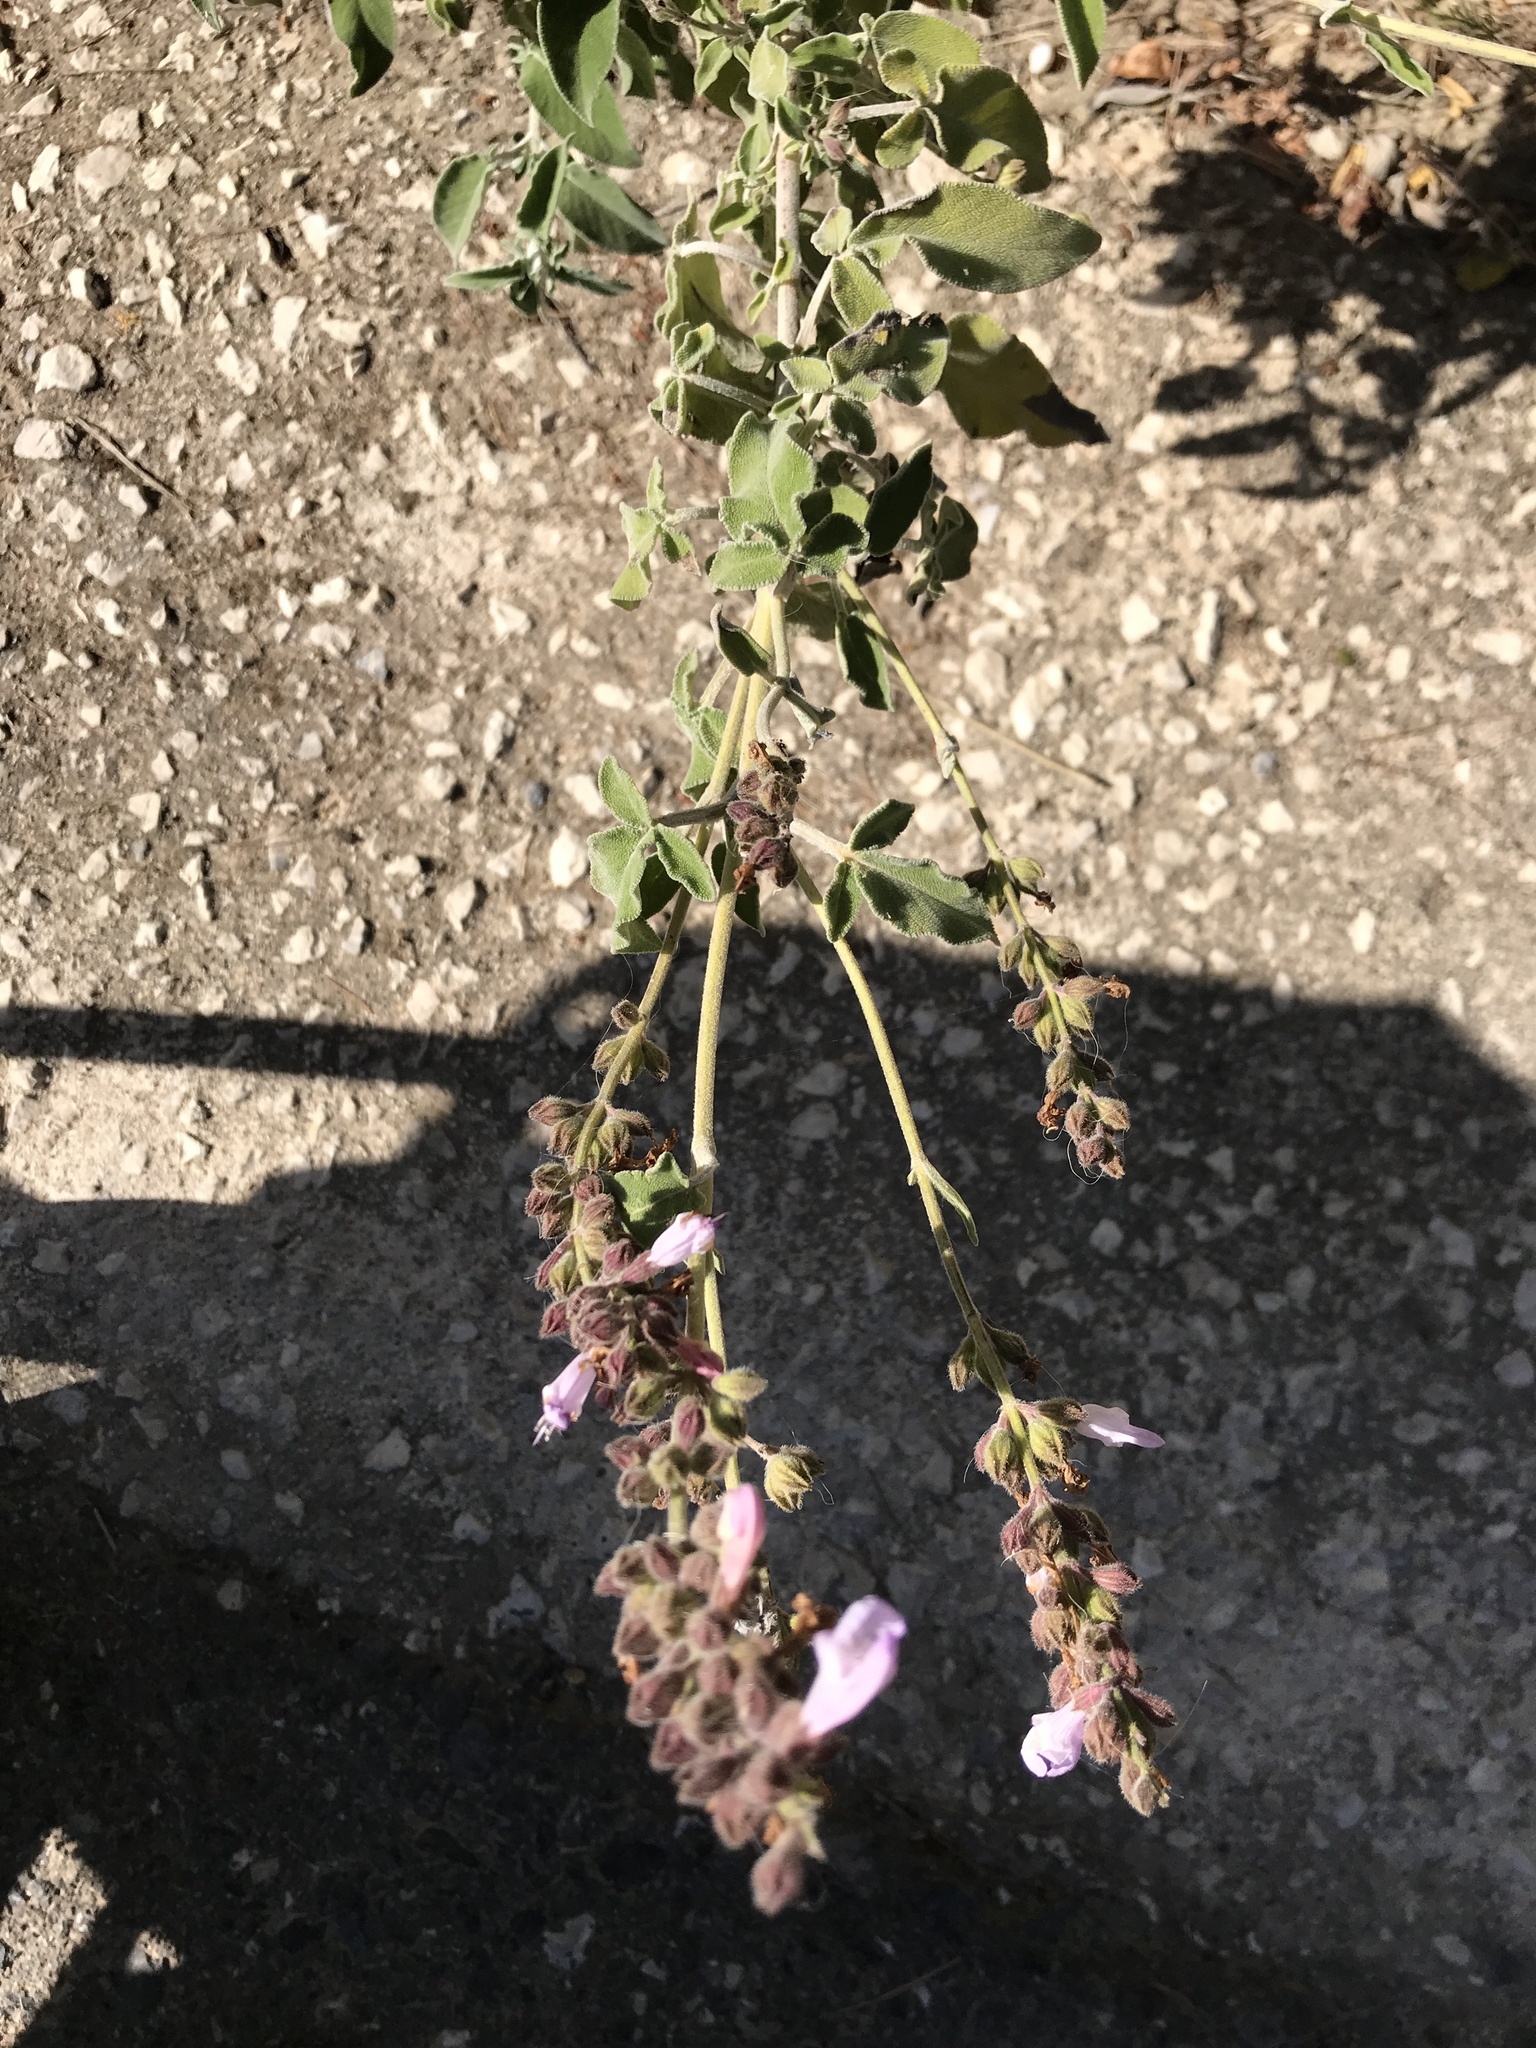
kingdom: Plantae
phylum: Tracheophyta
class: Magnoliopsida
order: Lamiales
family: Lamiaceae
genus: Salvia
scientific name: Salvia fruticosa
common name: Greek sage
